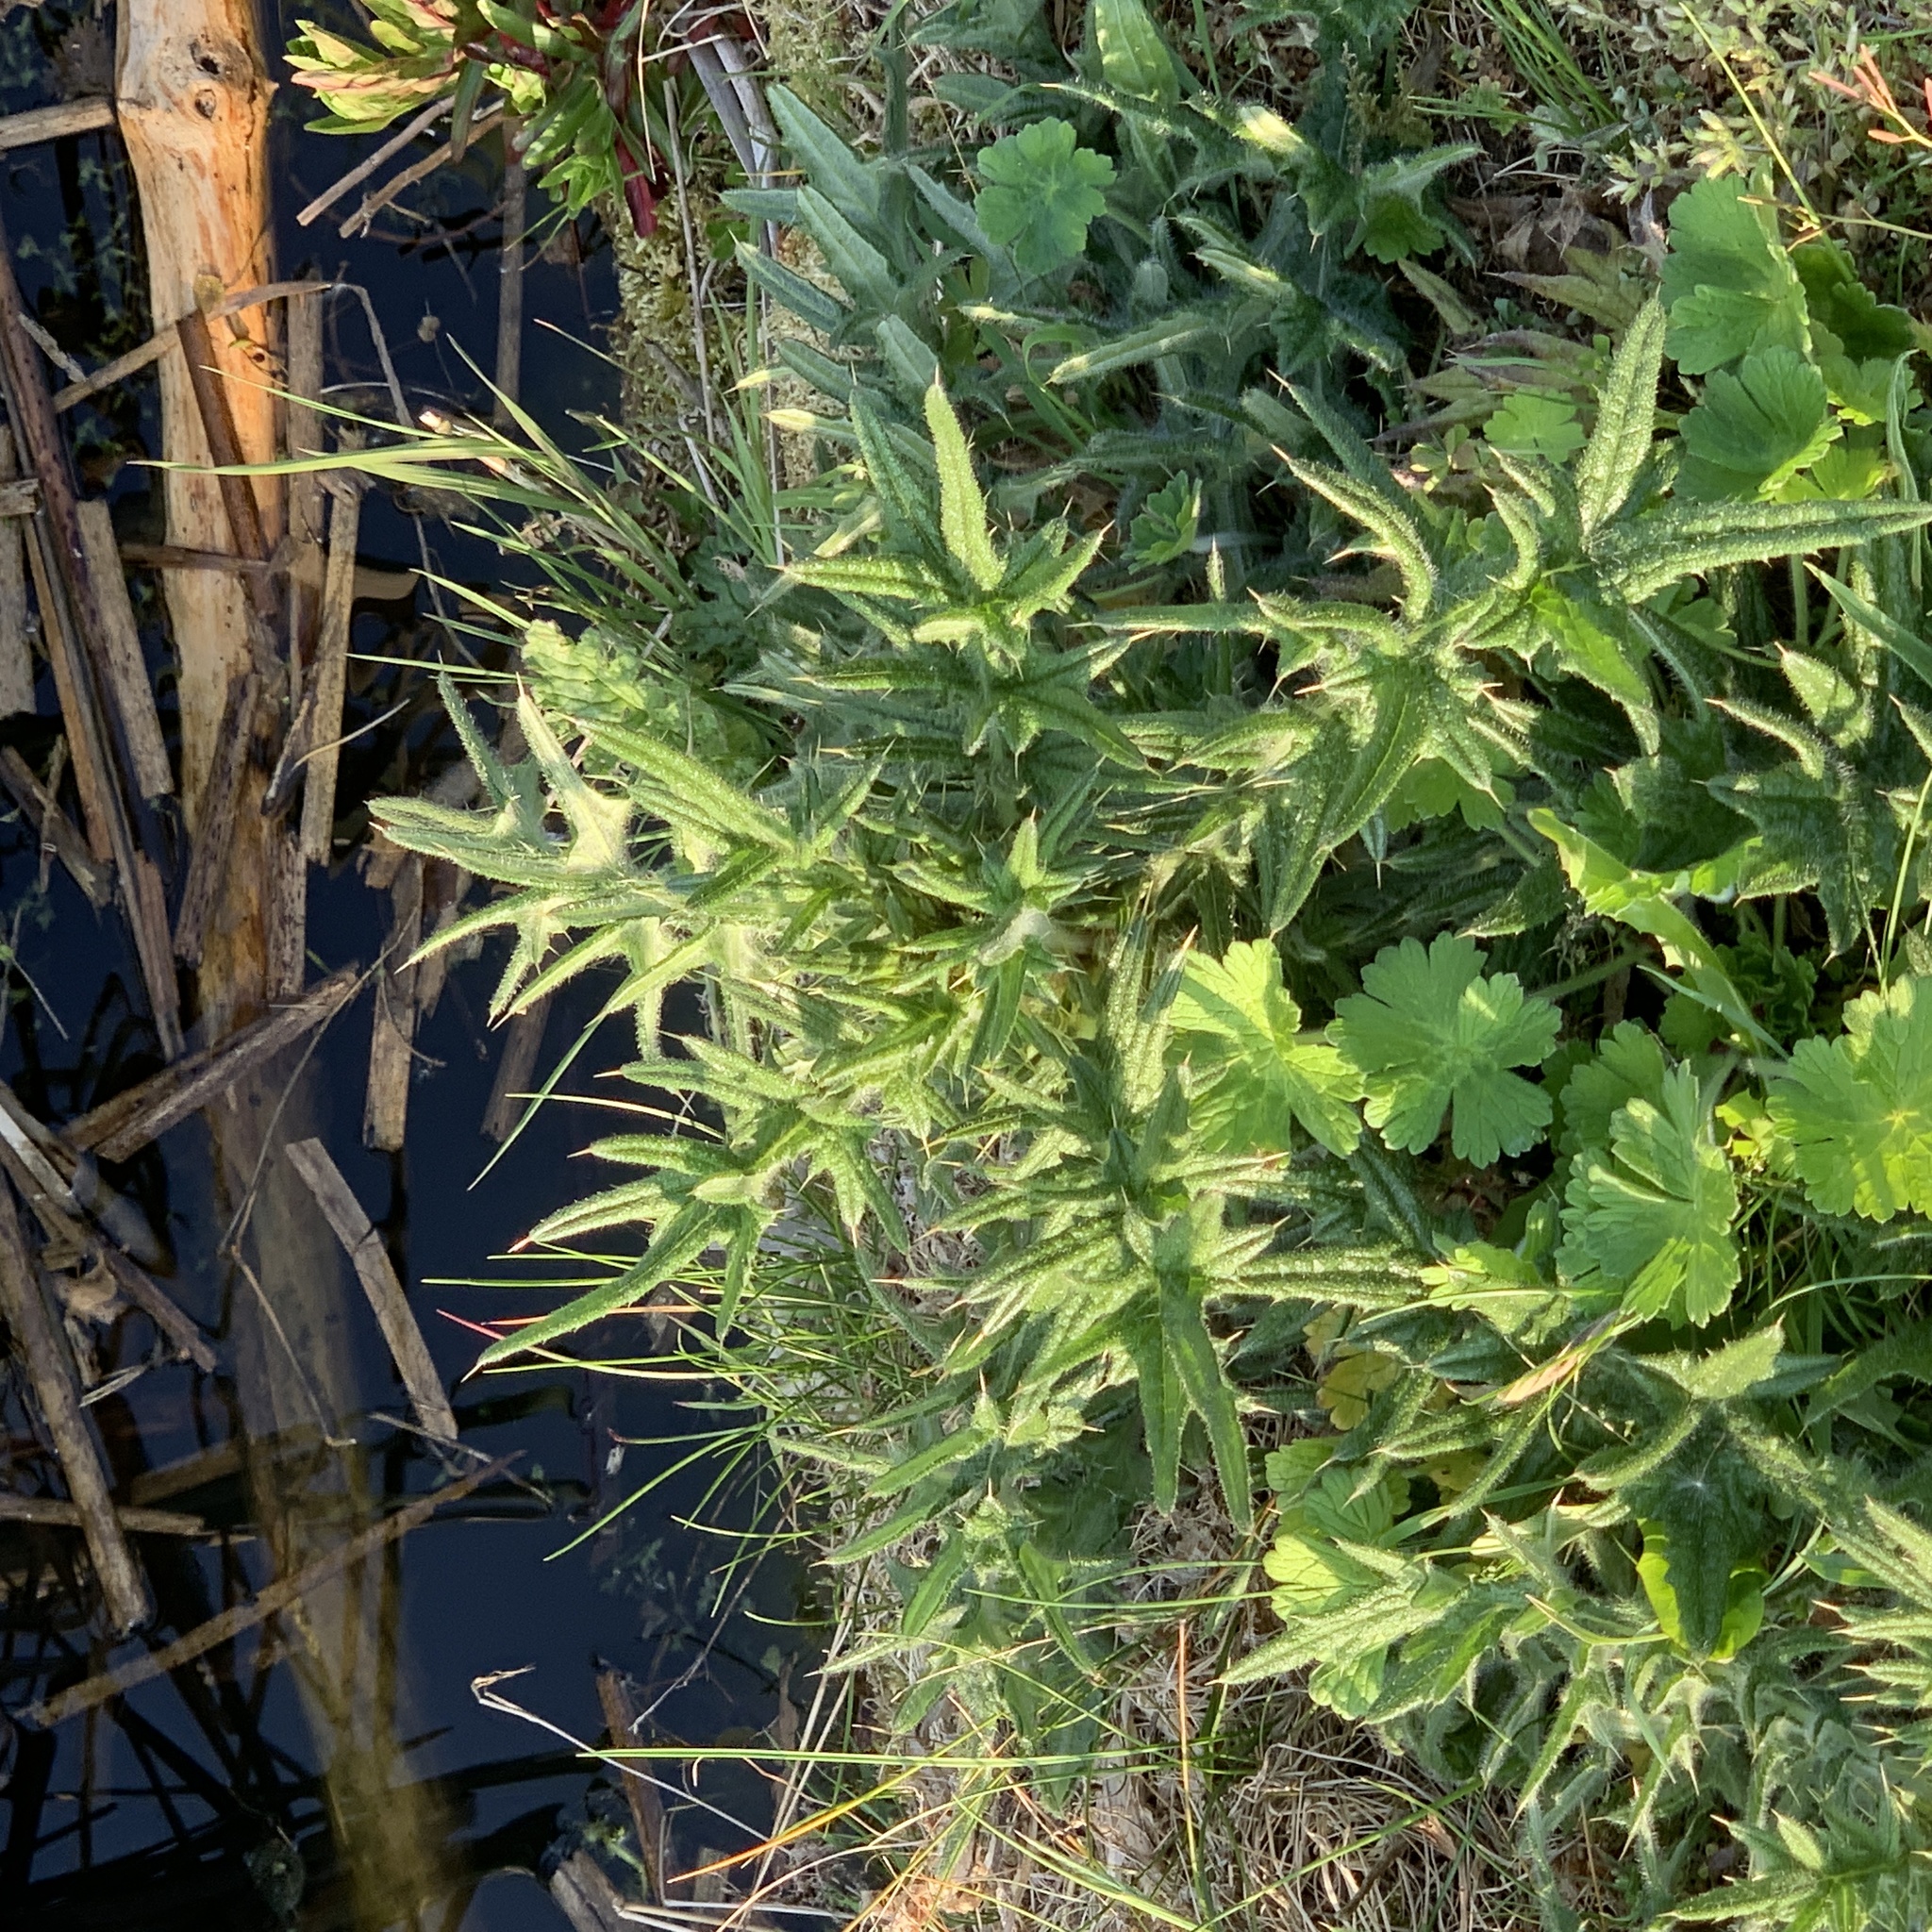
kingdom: Plantae
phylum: Tracheophyta
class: Magnoliopsida
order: Asterales
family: Asteraceae
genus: Cirsium
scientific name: Cirsium vulgare
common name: Bull thistle
